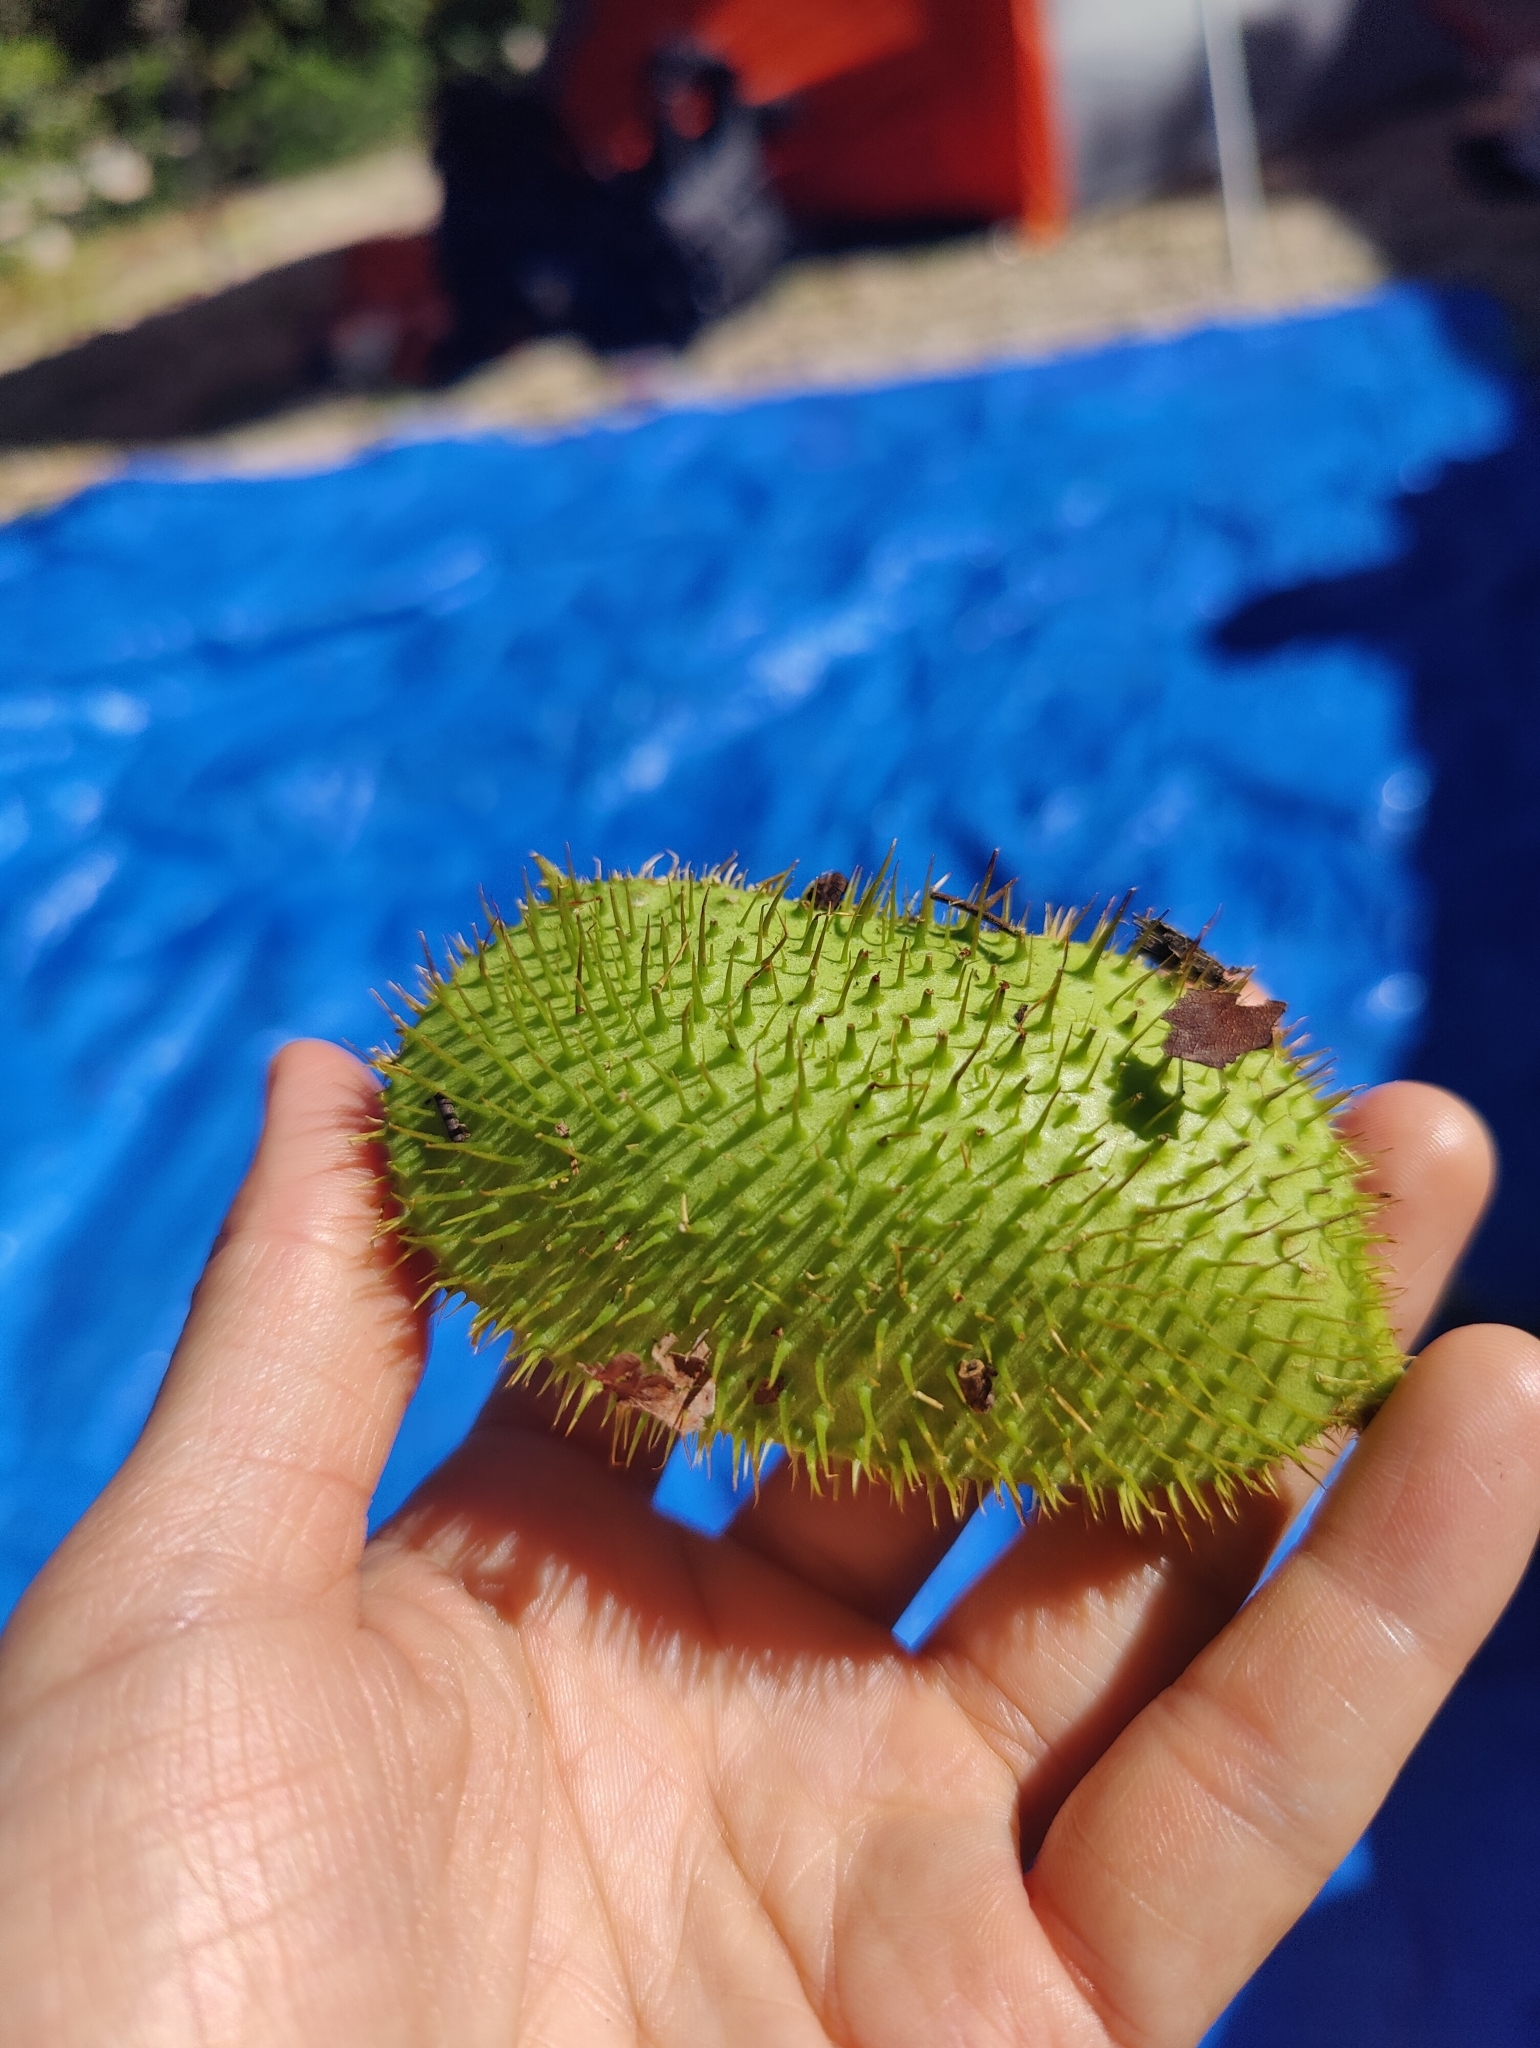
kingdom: Plantae
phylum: Tracheophyta
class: Magnoliopsida
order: Fabales
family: Fabaceae
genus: Guilandina
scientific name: Guilandina bonduc
